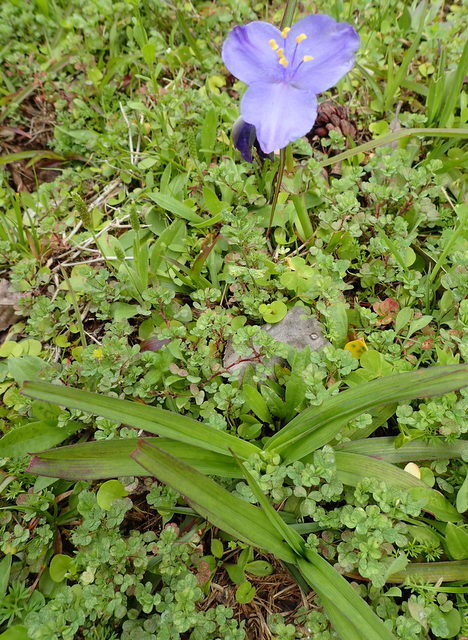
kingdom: Plantae
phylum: Tracheophyta
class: Liliopsida
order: Commelinales
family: Commelinaceae
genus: Tradescantia
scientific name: Tradescantia ohiensis
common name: Ohio spiderwort
